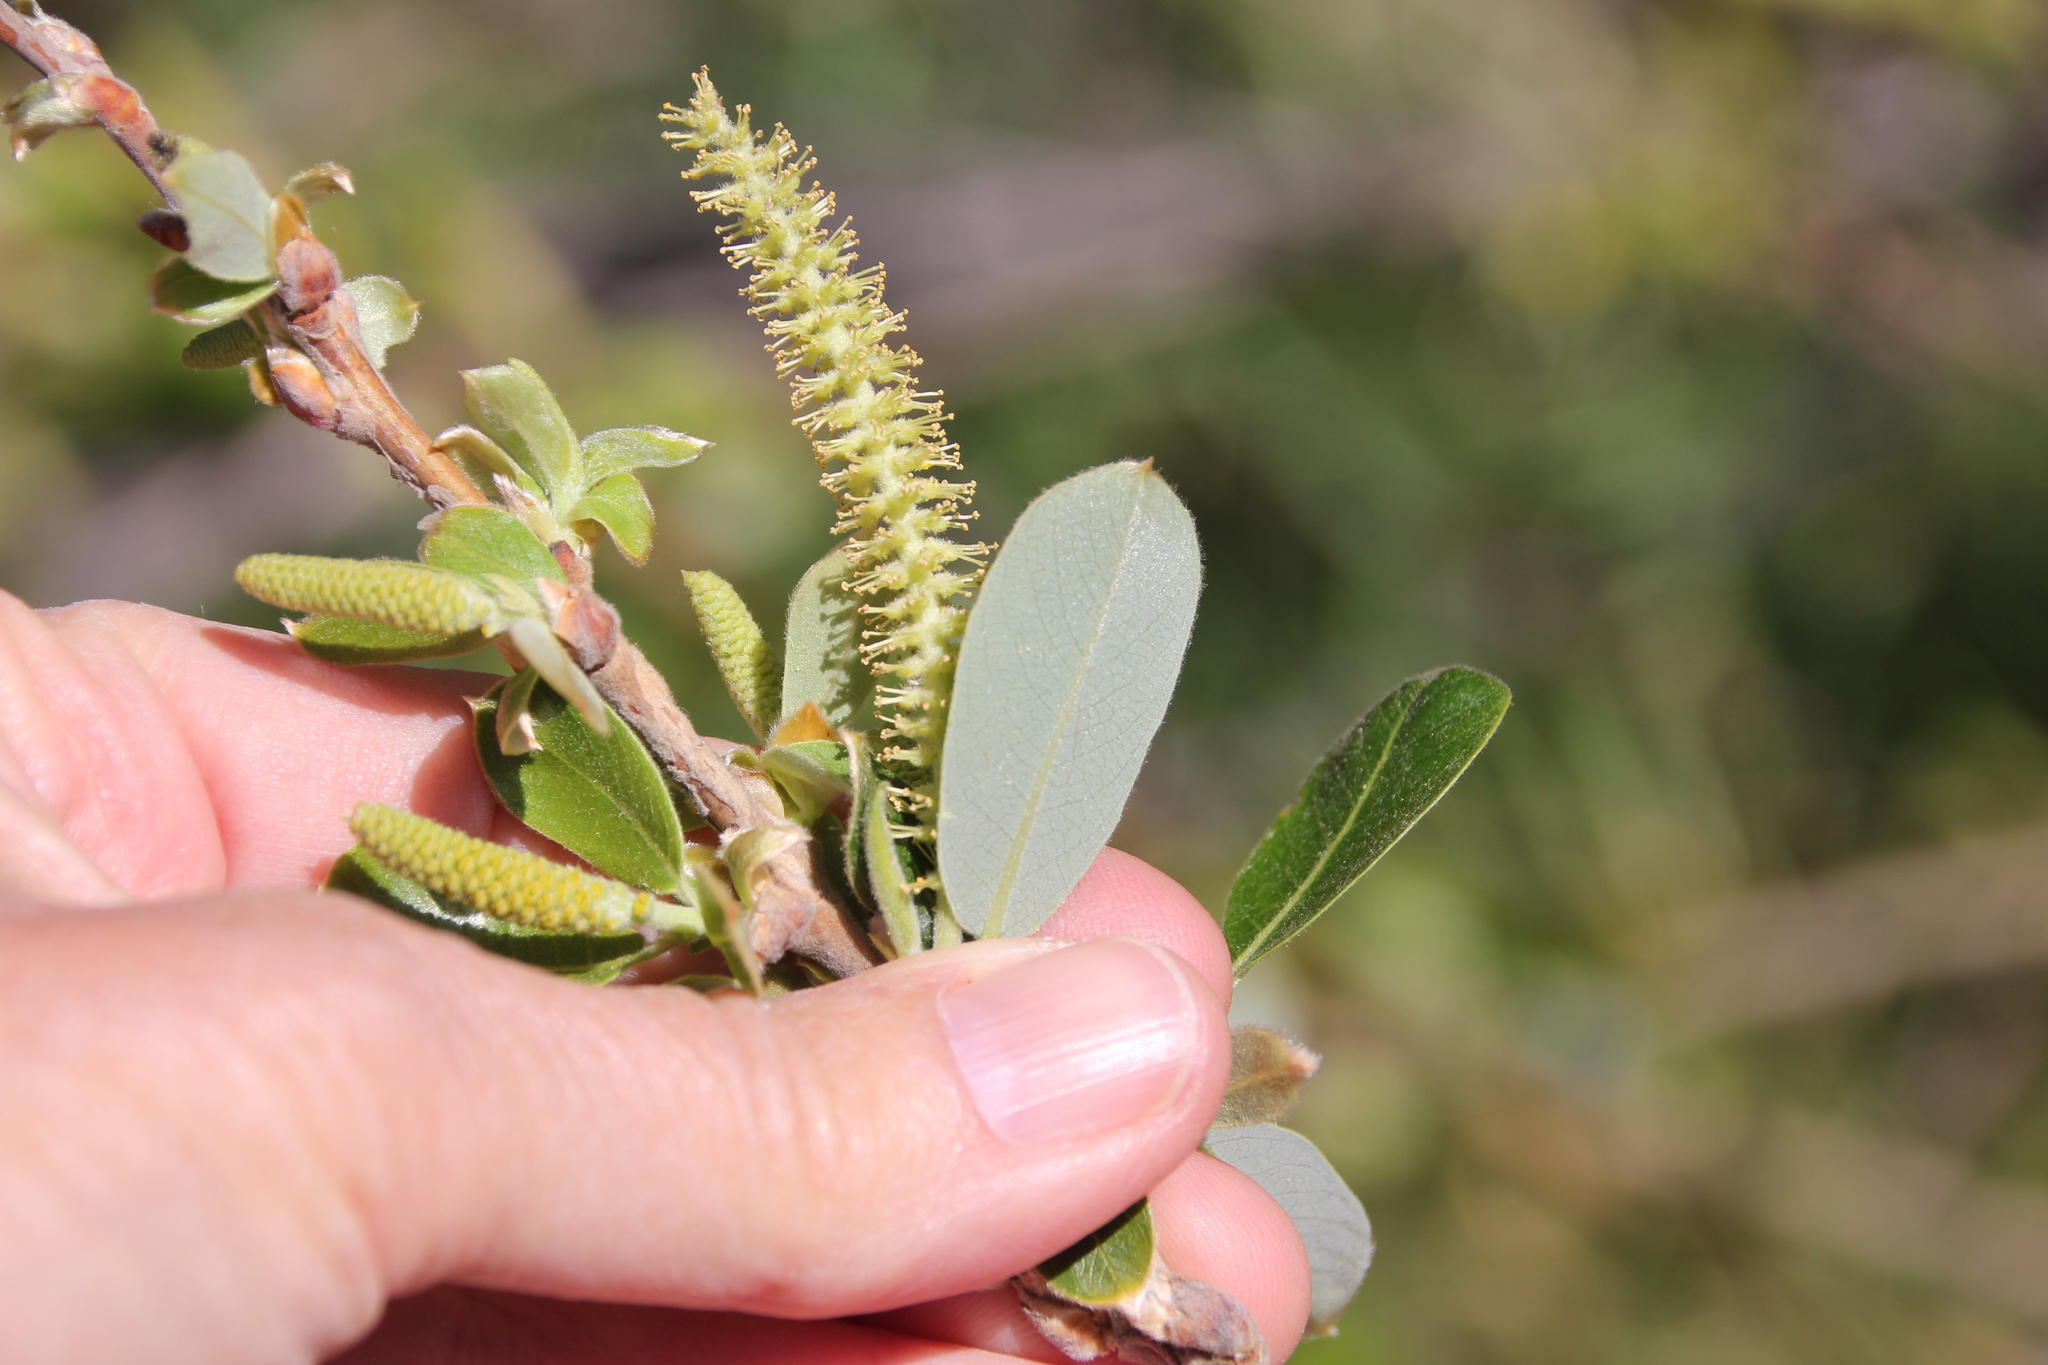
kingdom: Plantae
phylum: Tracheophyta
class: Magnoliopsida
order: Malpighiales
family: Salicaceae
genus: Salix
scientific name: Salix laevigata
